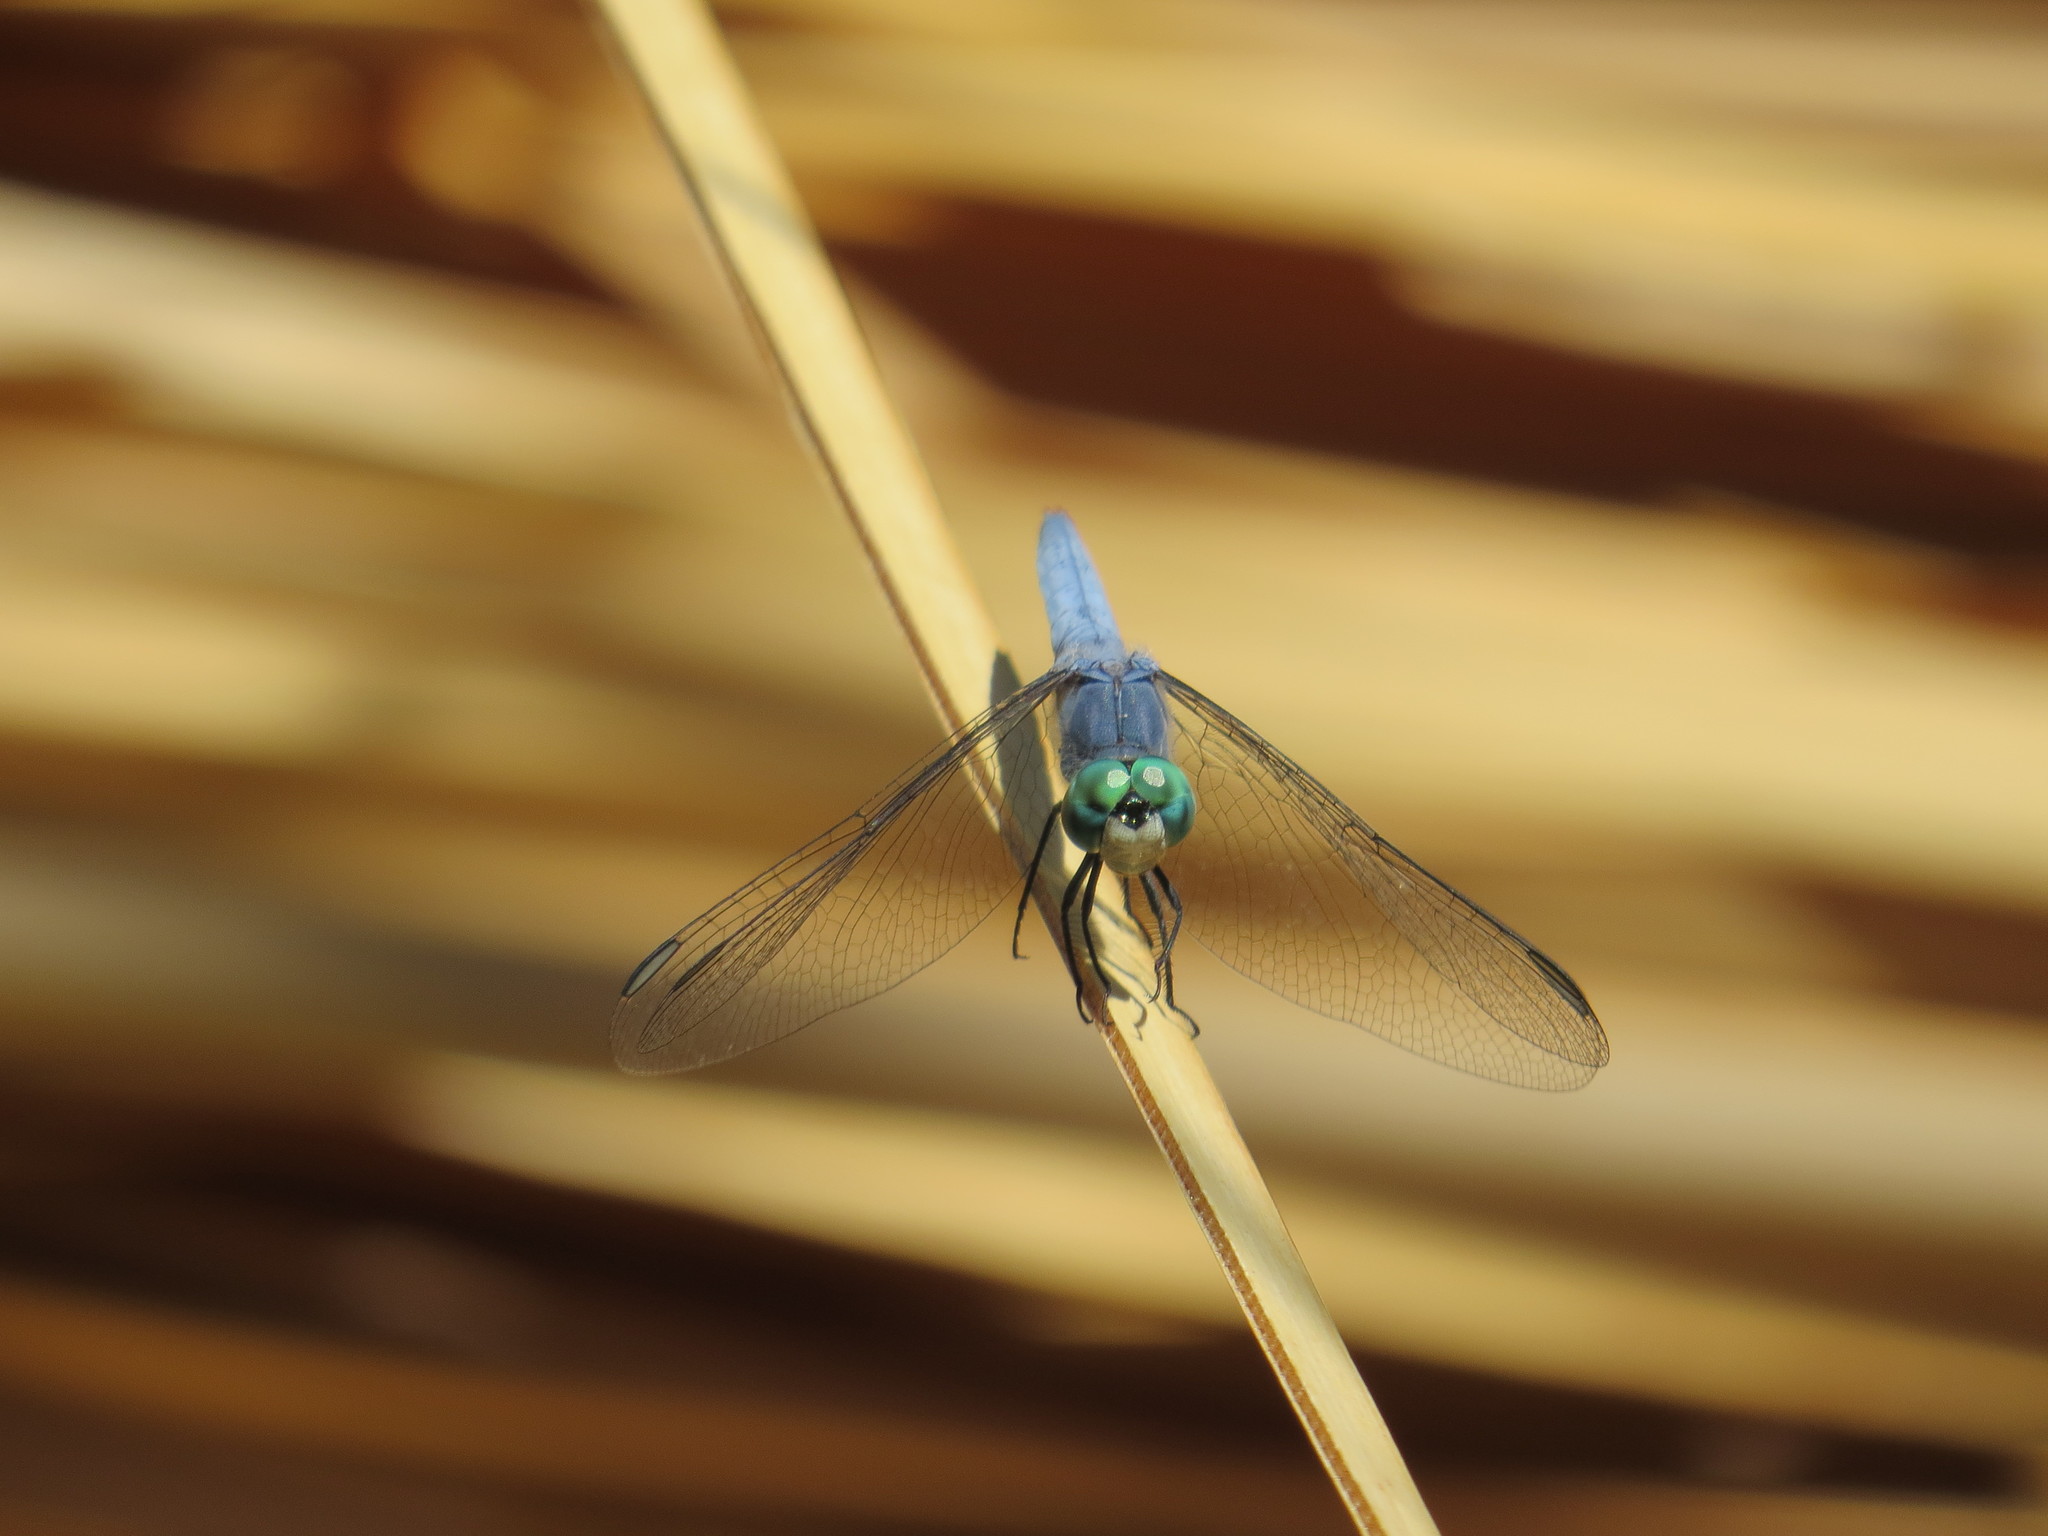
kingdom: Animalia
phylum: Arthropoda
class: Insecta
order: Odonata
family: Libellulidae
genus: Pachydiplax
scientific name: Pachydiplax longipennis
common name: Blue dasher
